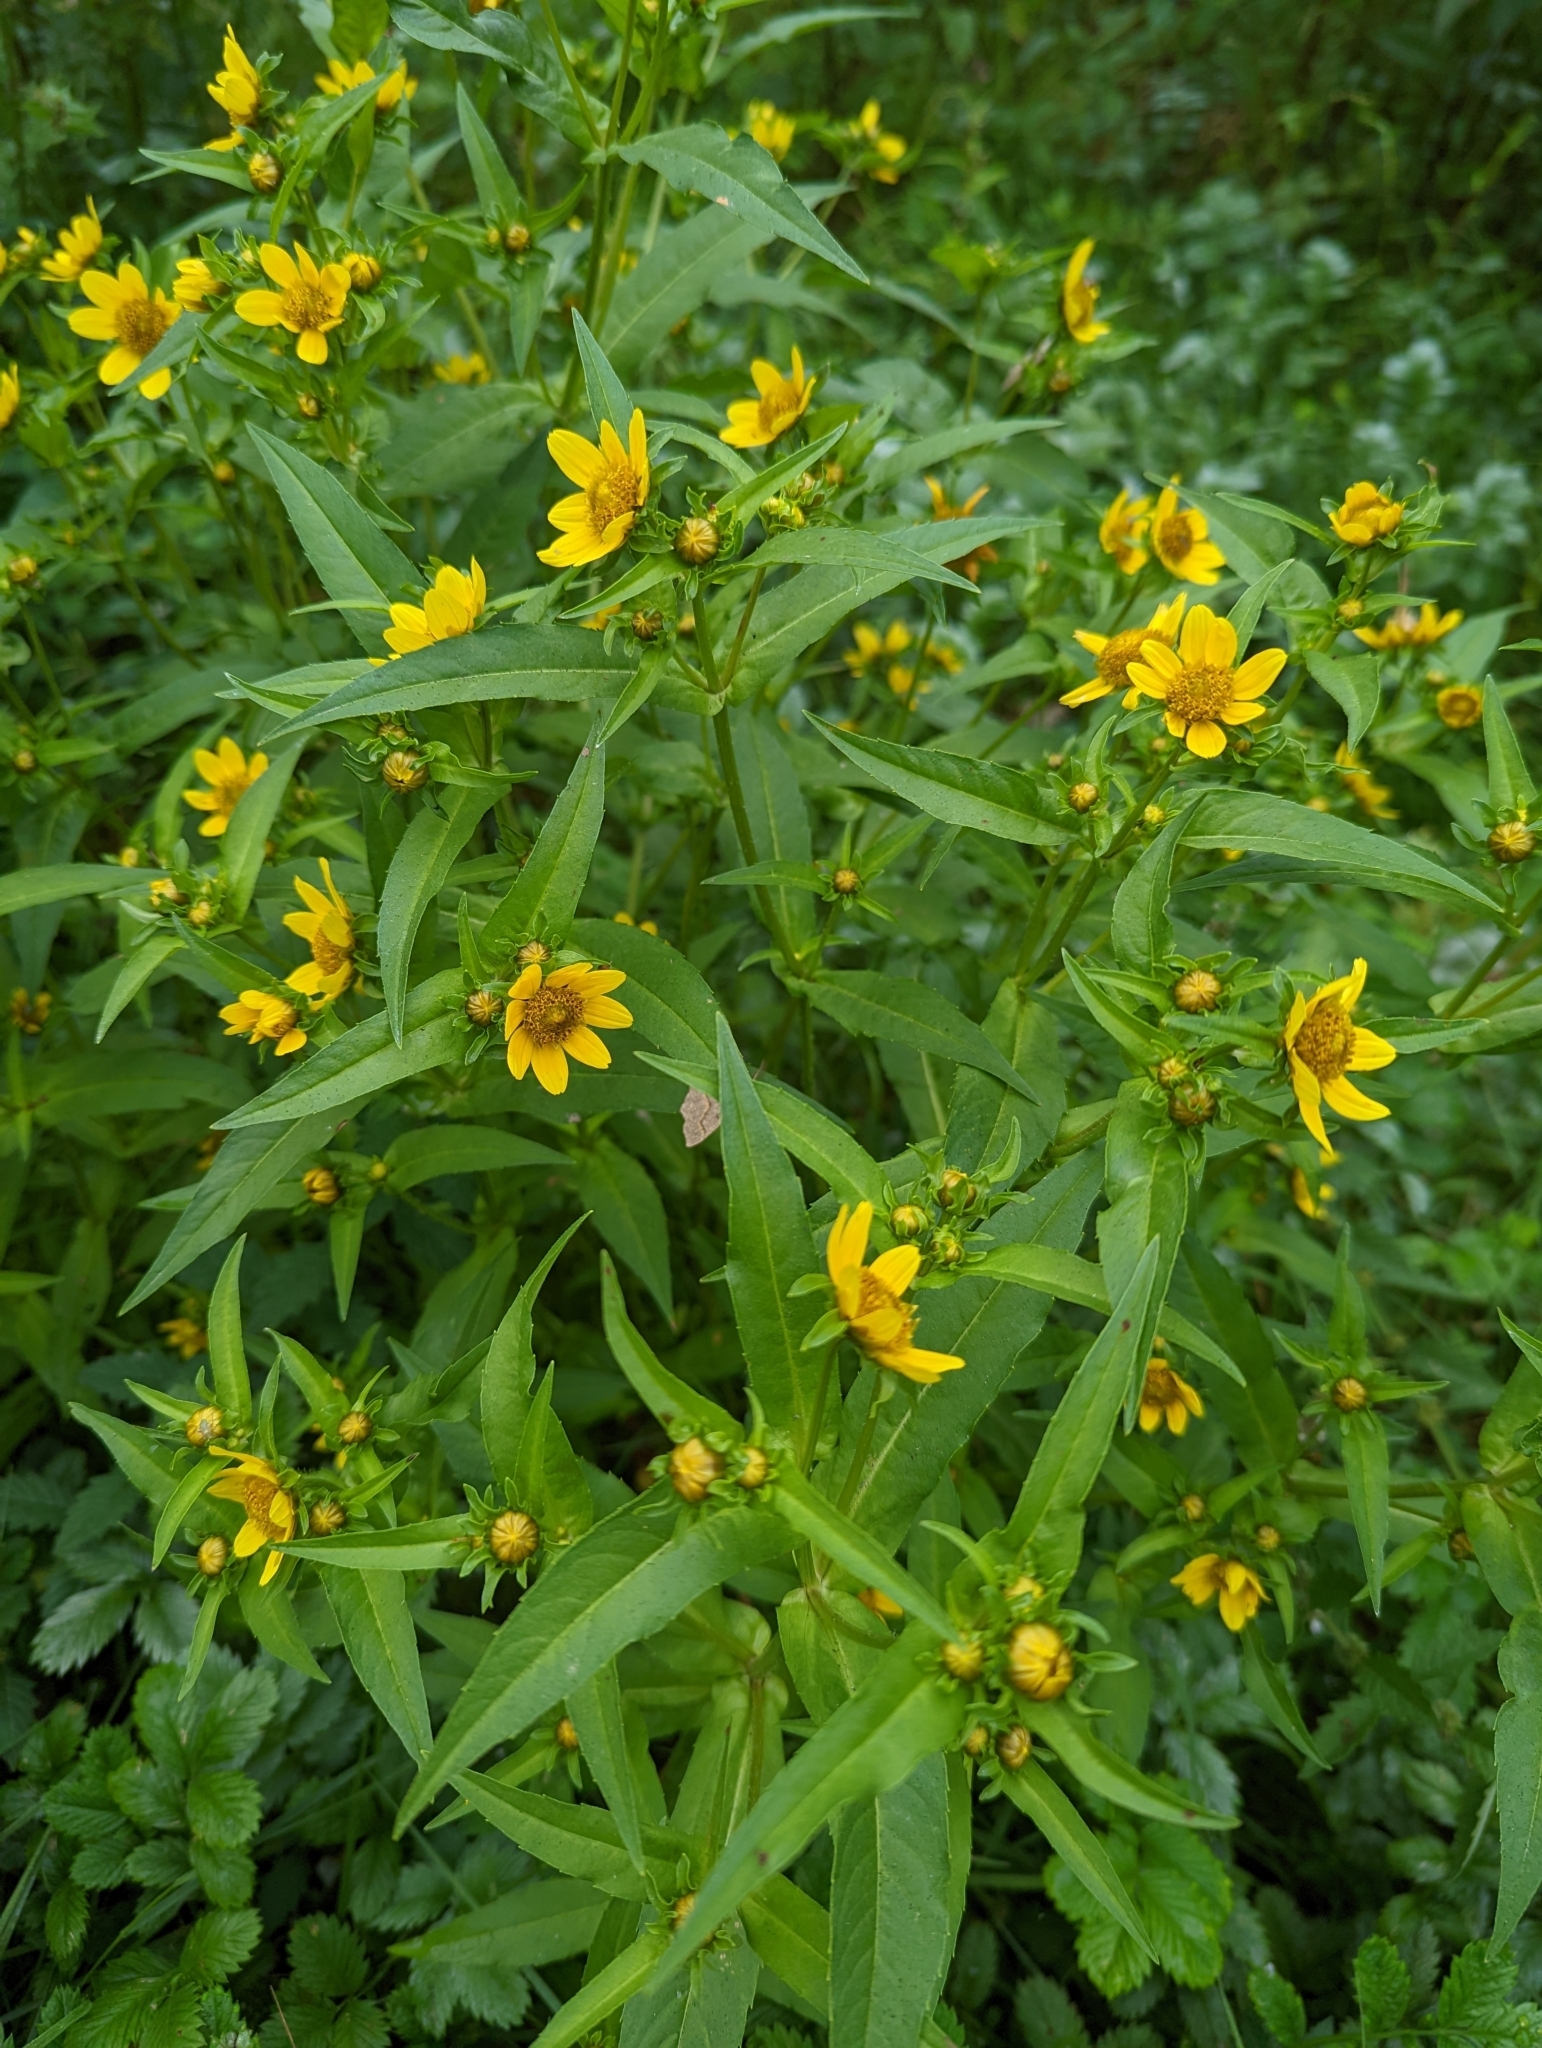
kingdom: Plantae
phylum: Tracheophyta
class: Magnoliopsida
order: Asterales
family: Asteraceae
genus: Bidens
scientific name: Bidens cernua
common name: Nodding bur-marigold
